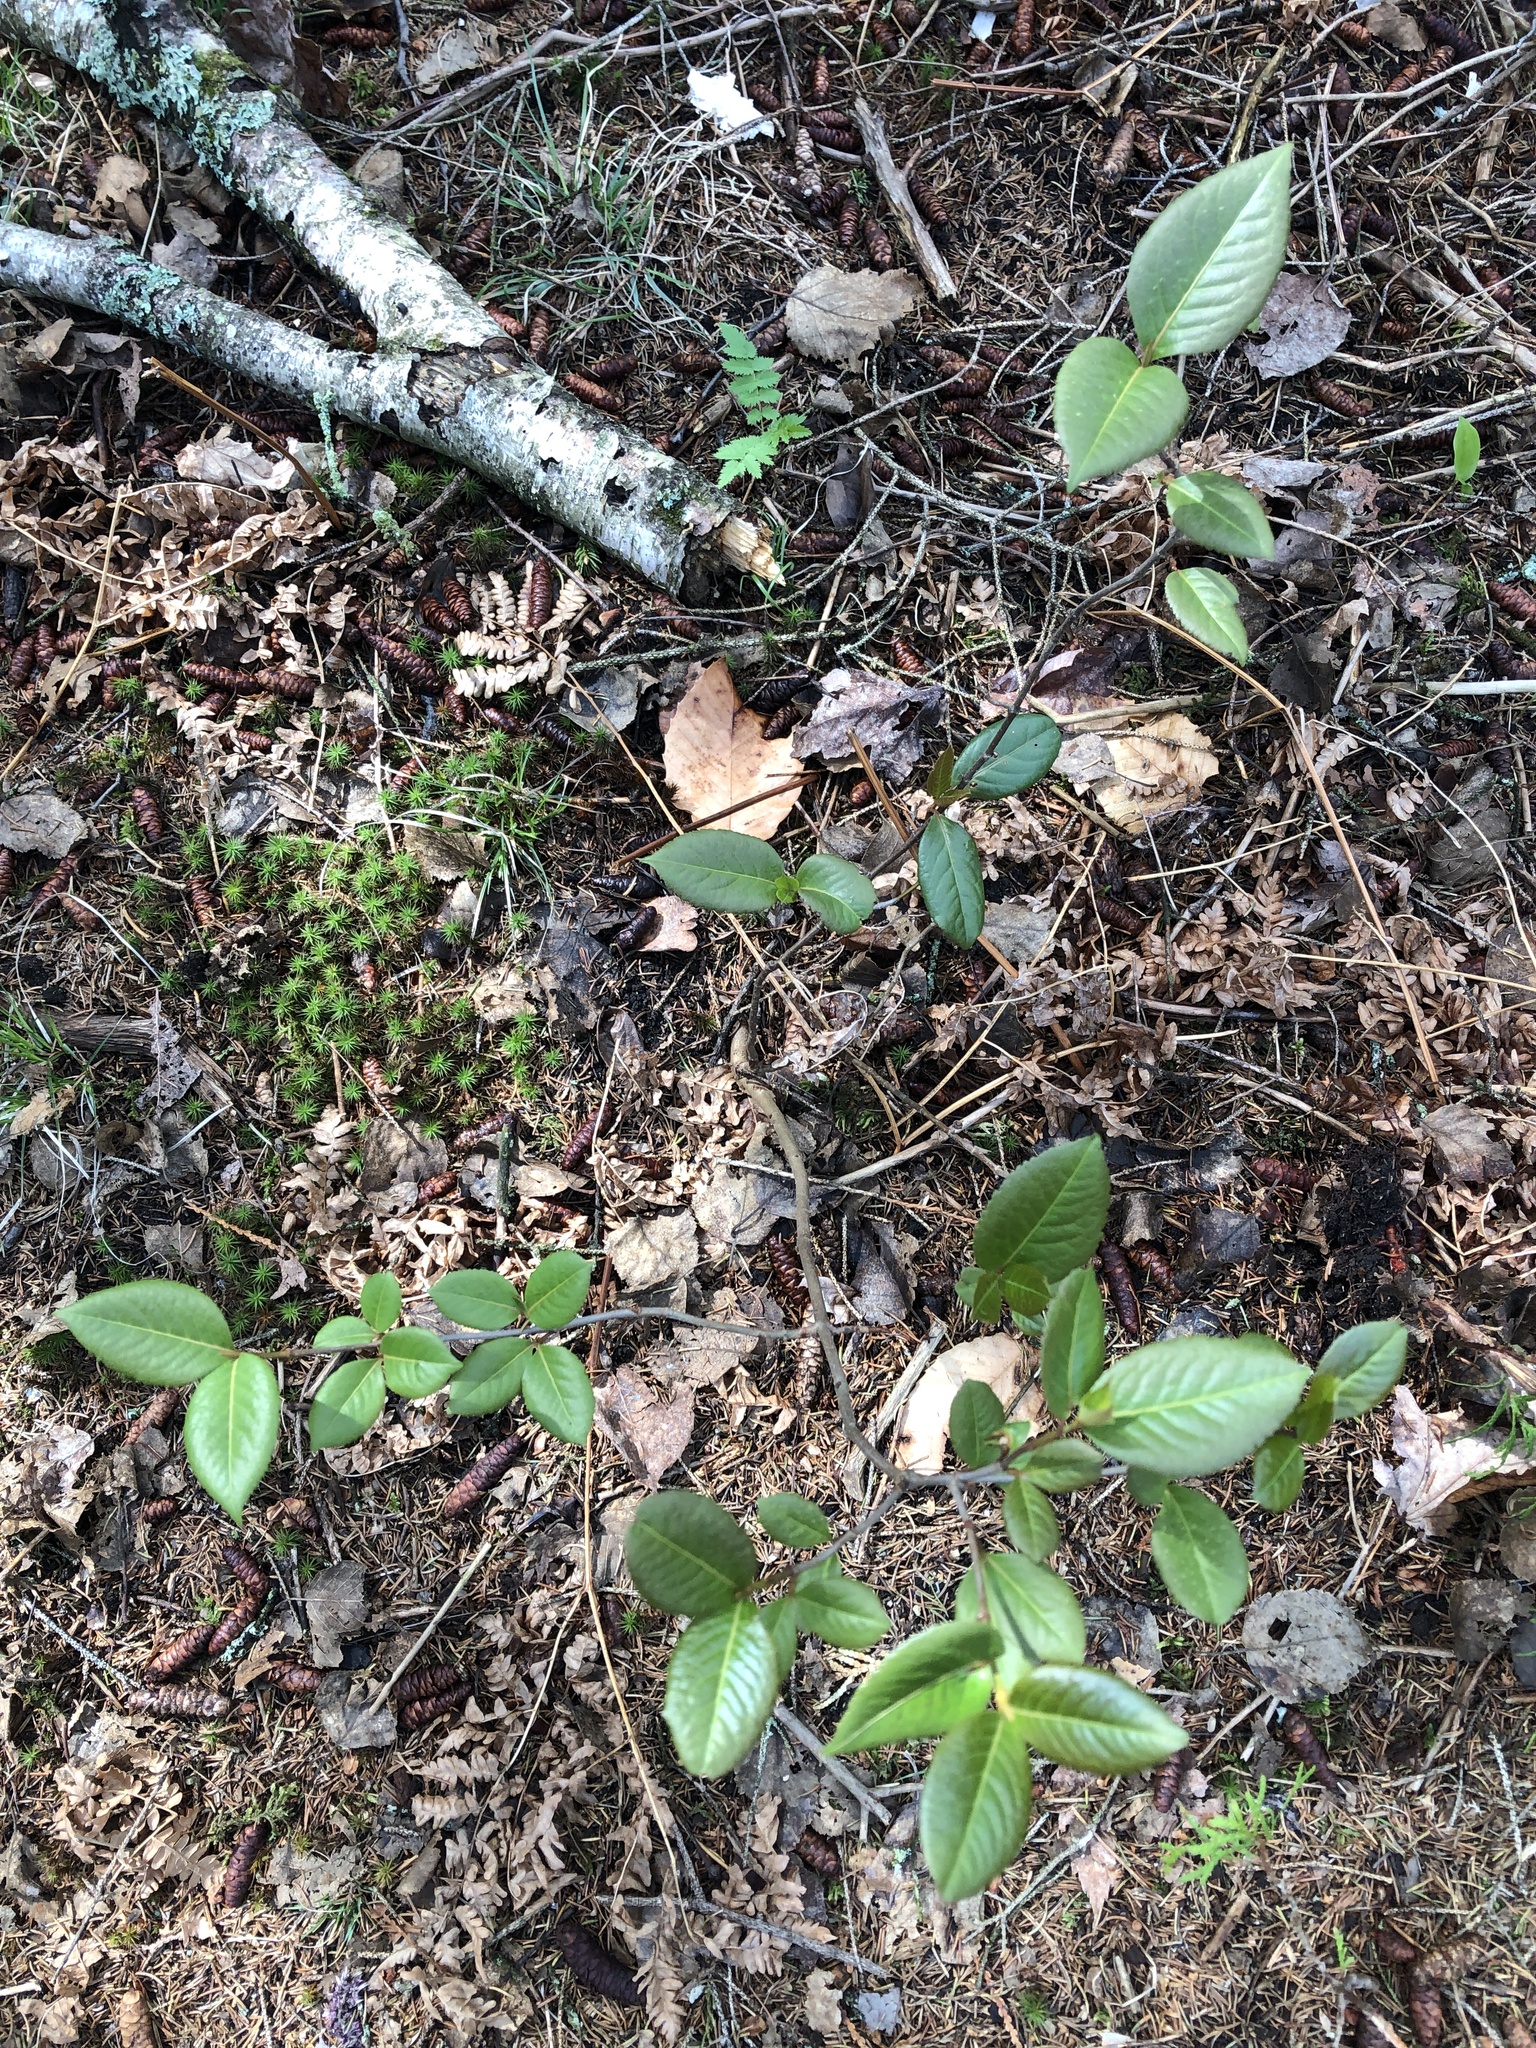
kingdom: Plantae
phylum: Tracheophyta
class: Magnoliopsida
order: Dipsacales
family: Viburnaceae
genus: Viburnum
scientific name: Viburnum cassinoides
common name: Swamp haw
